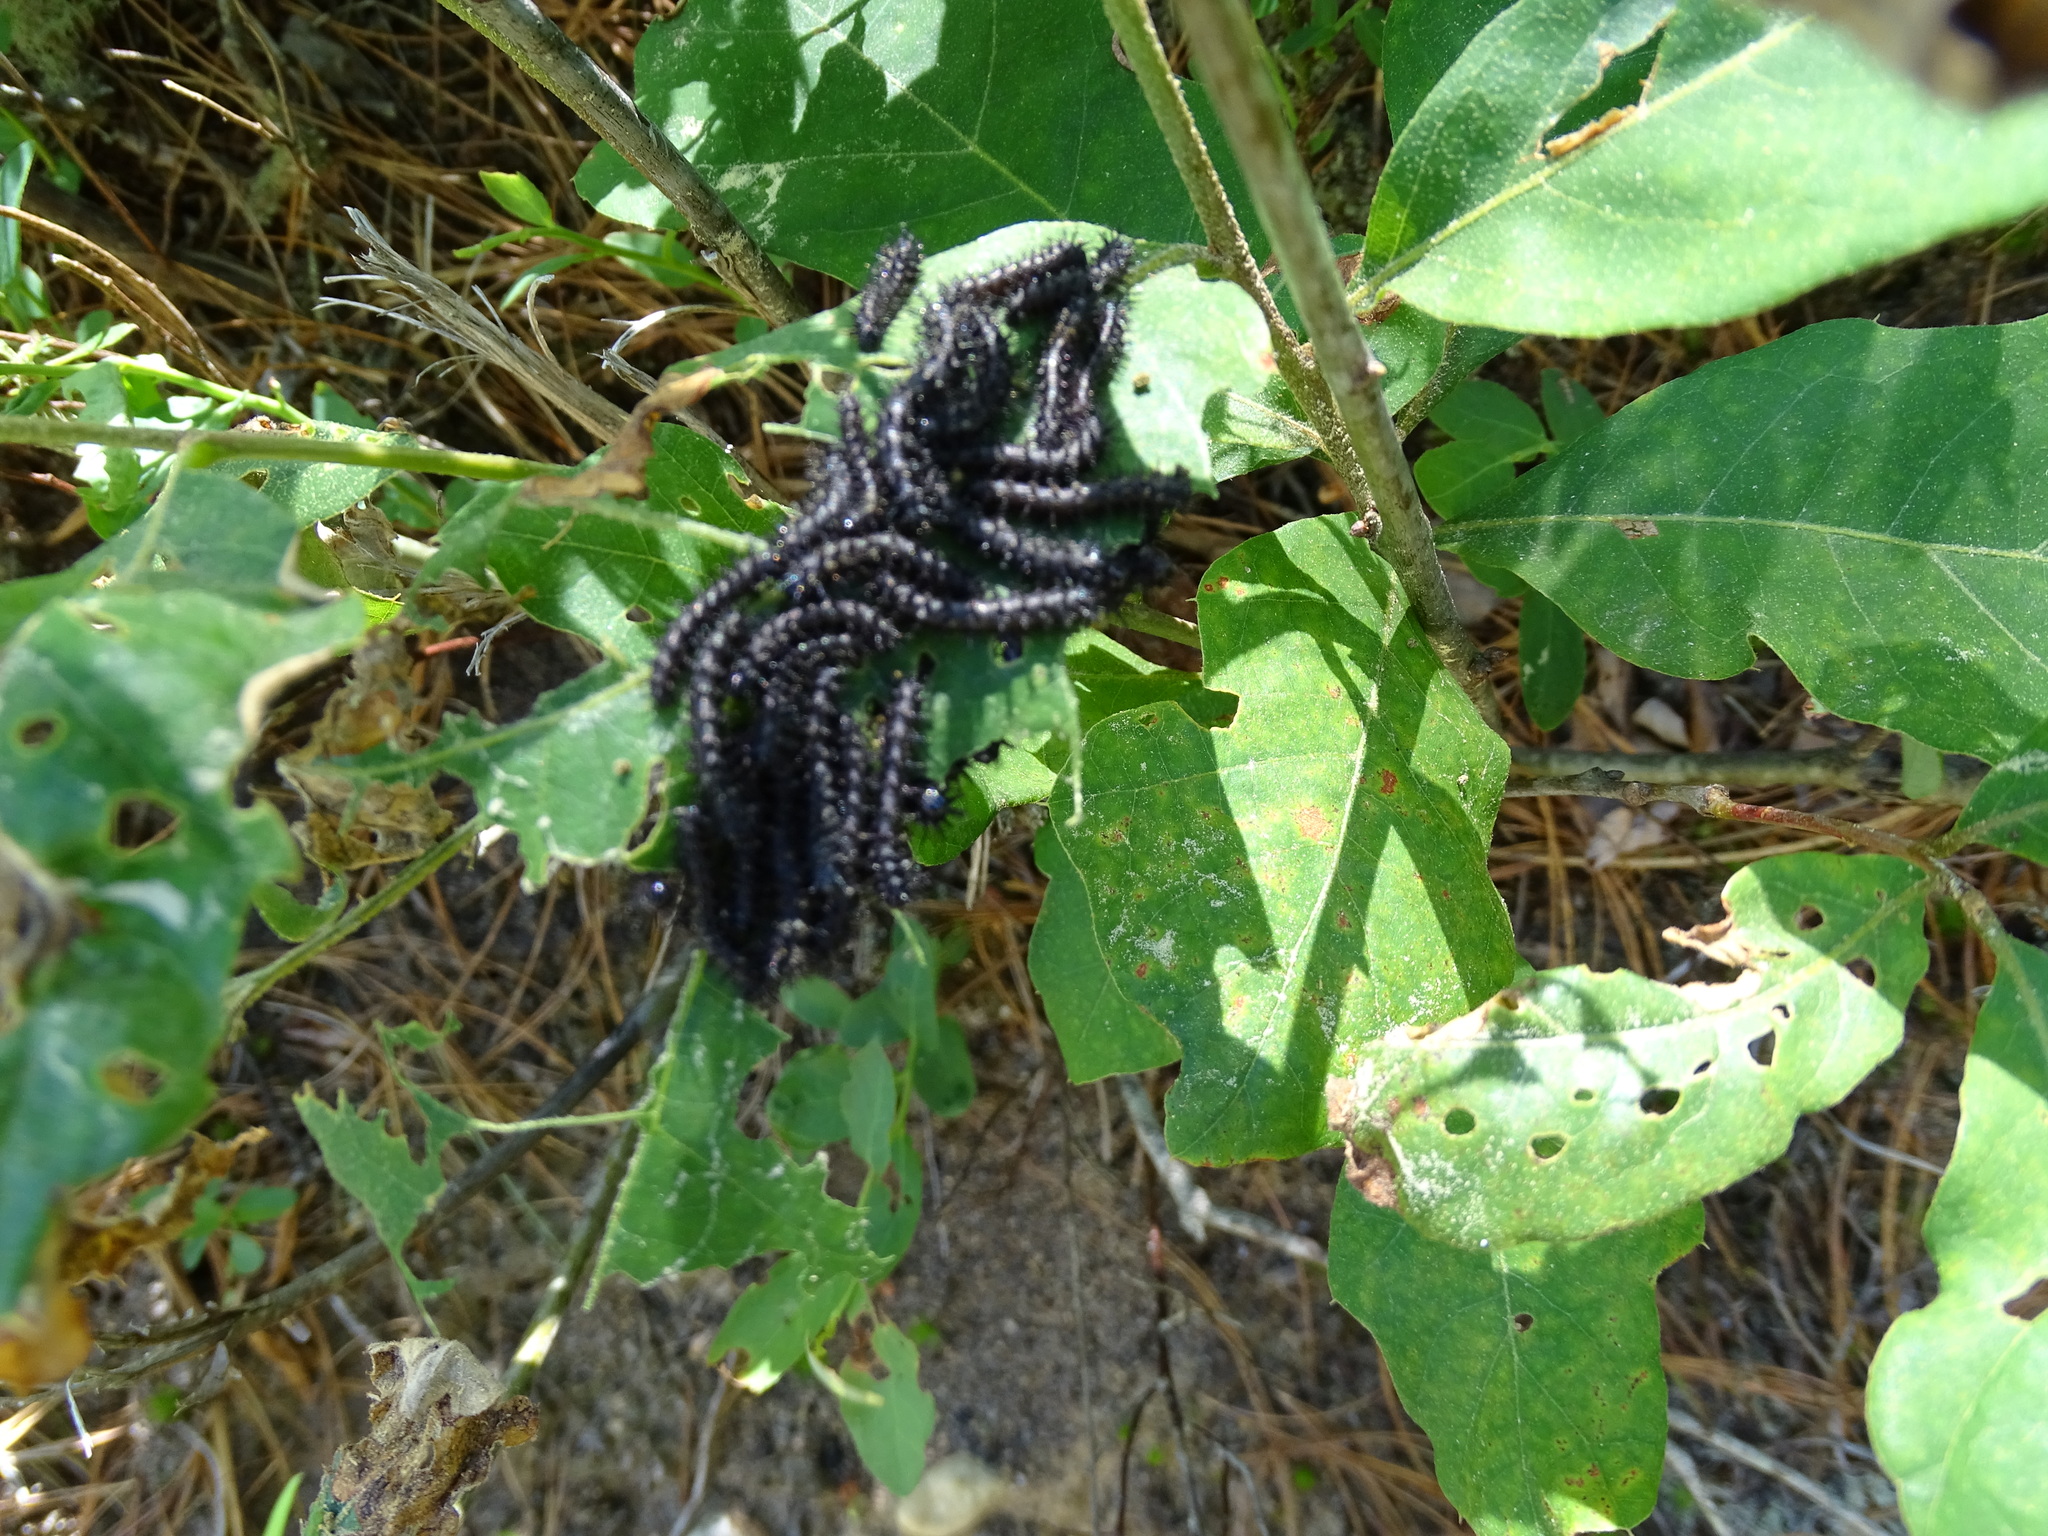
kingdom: Animalia
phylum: Arthropoda
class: Insecta
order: Lepidoptera
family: Saturniidae
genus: Hemileuca
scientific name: Hemileuca maia
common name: Eastern buckmoth
